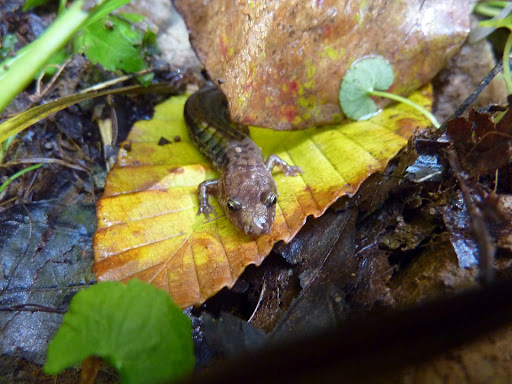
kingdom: Animalia
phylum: Chordata
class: Amphibia
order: Caudata
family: Plethodontidae
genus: Desmognathus
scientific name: Desmognathus ochrophaeus
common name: Allegheny mountain dusky salamander
